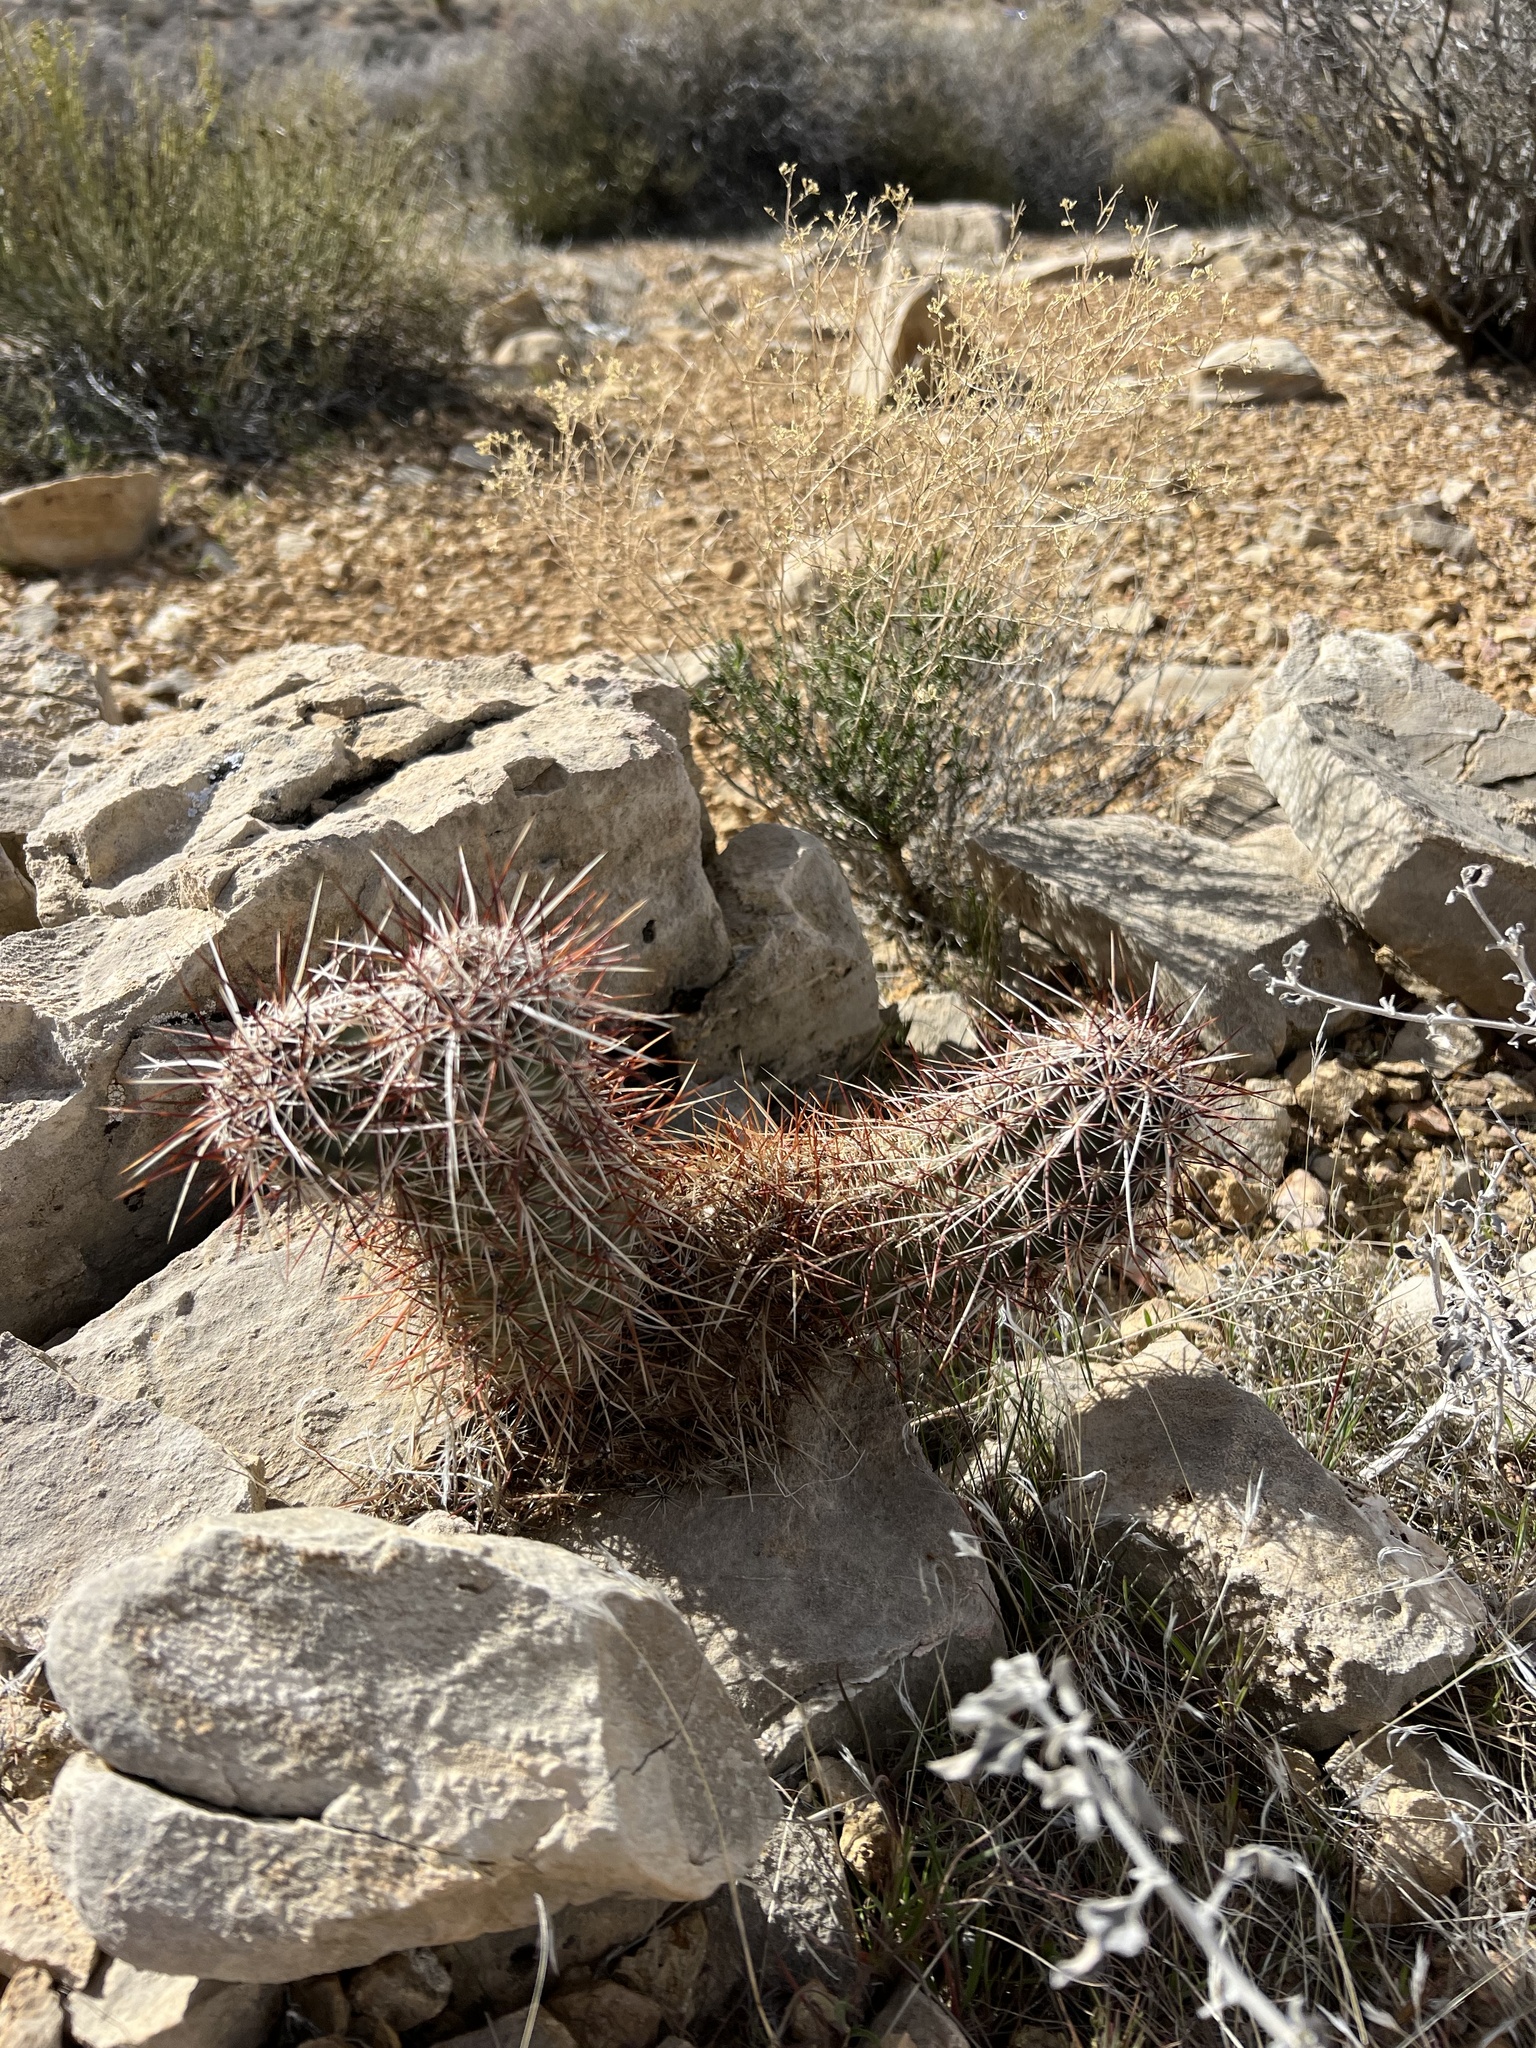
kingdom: Plantae
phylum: Tracheophyta
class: Magnoliopsida
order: Caryophyllales
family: Cactaceae
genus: Echinocereus
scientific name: Echinocereus engelmannii
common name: Engelmann's hedgehog cactus
